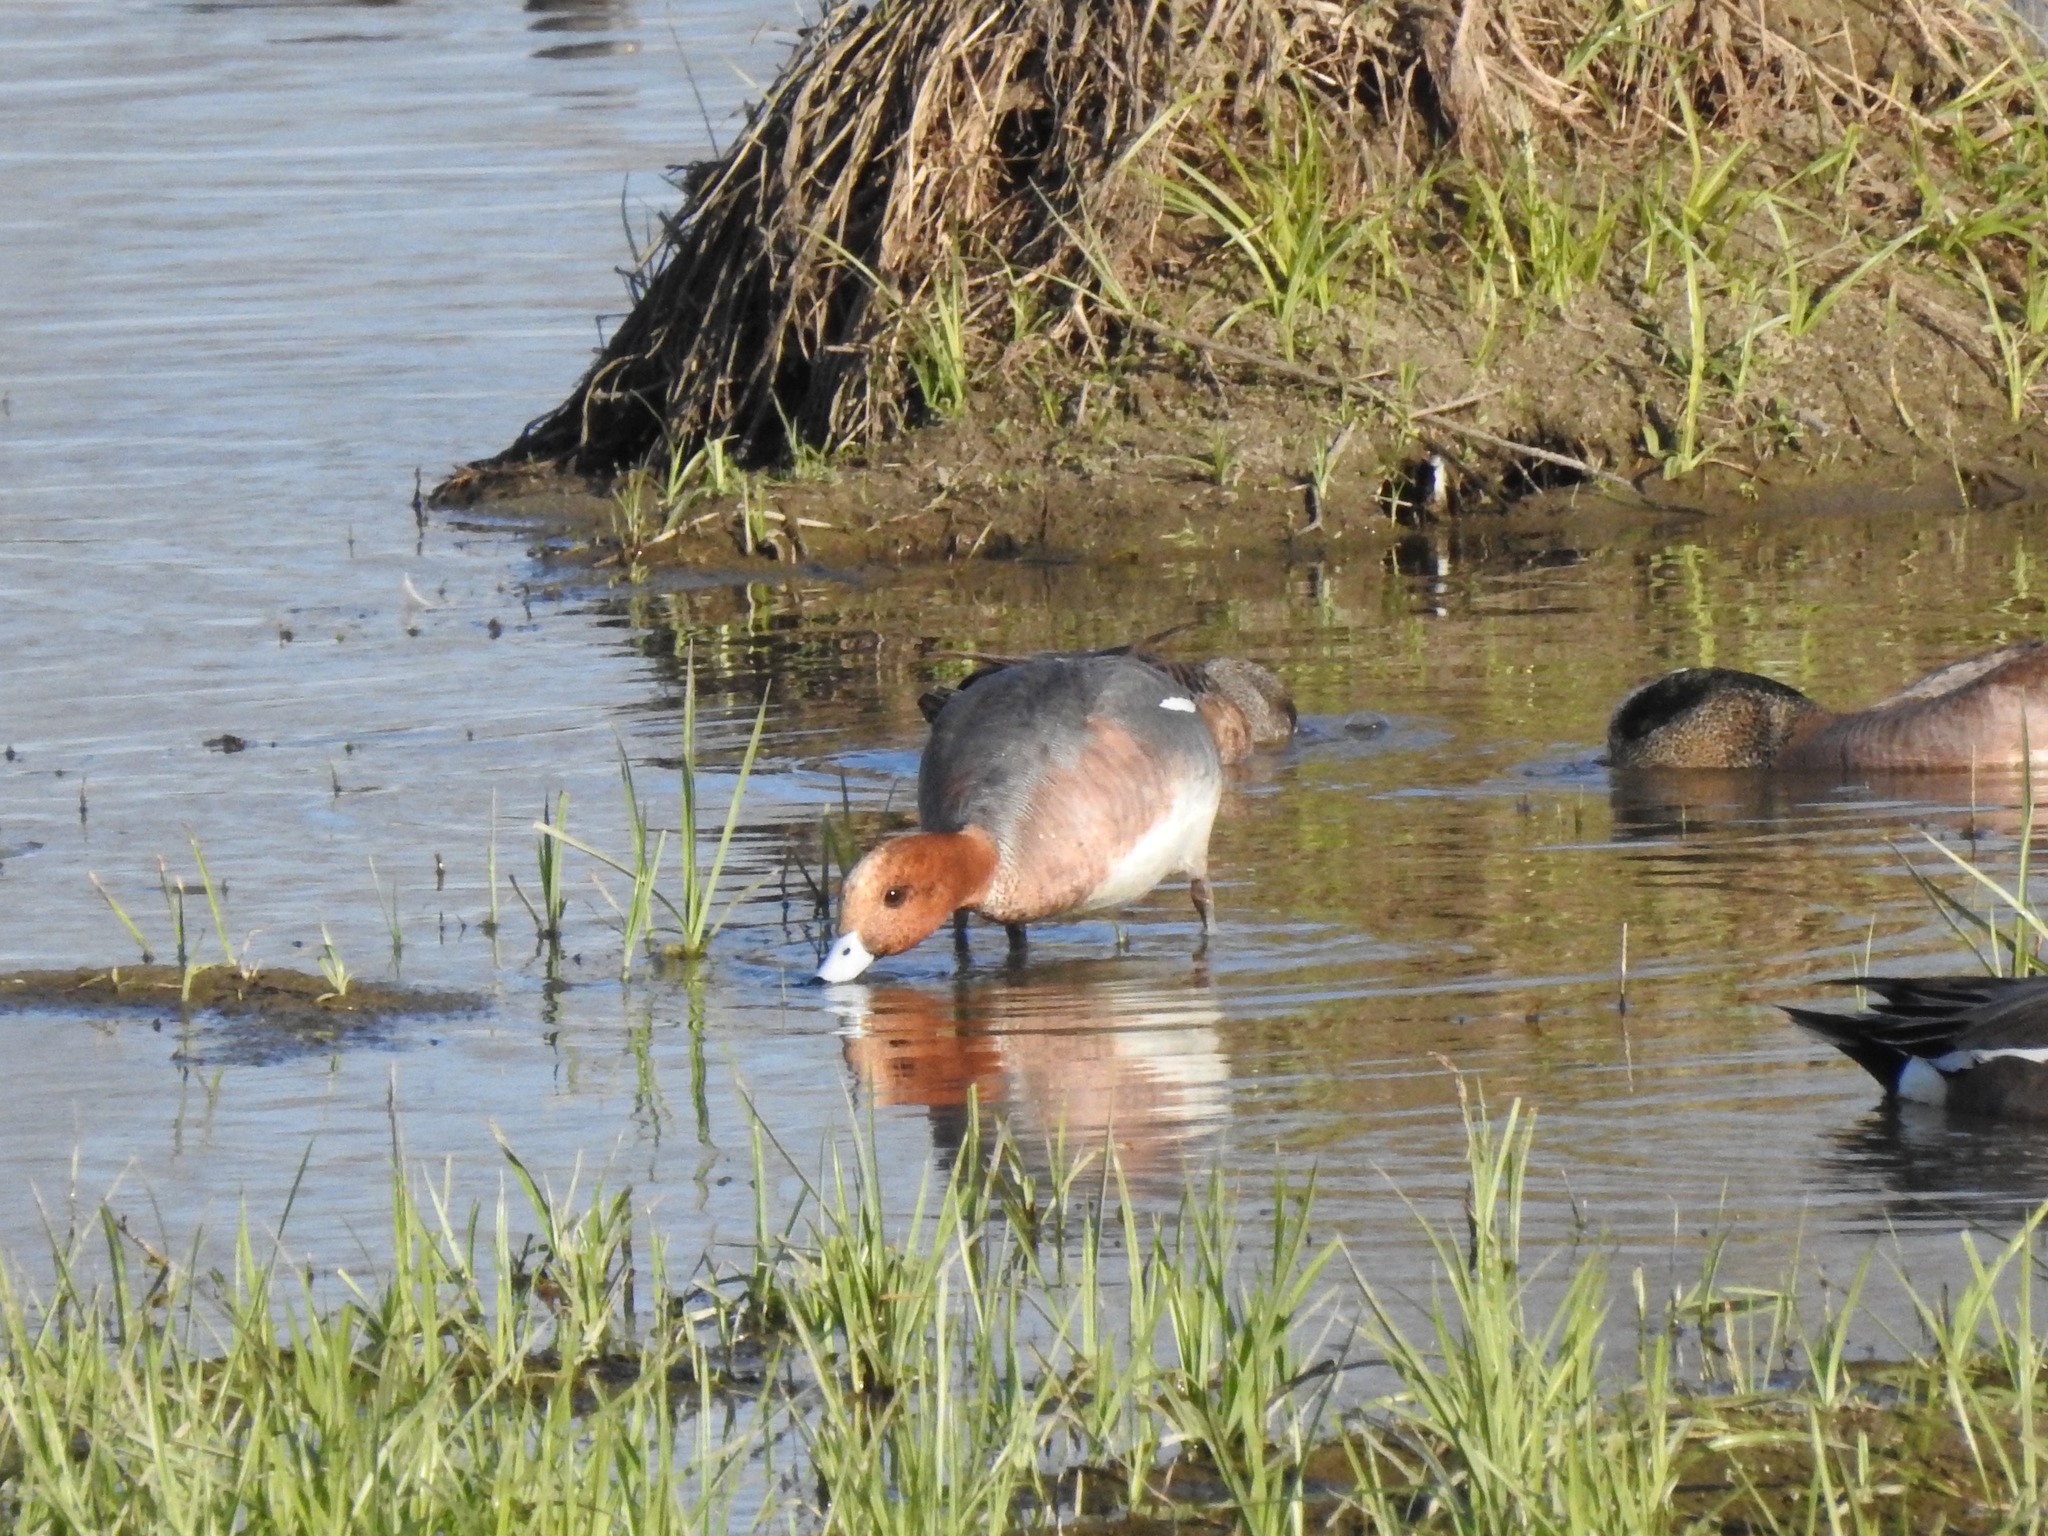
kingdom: Animalia
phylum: Chordata
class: Aves
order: Anseriformes
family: Anatidae
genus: Mareca
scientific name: Mareca penelope
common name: Eurasian wigeon
